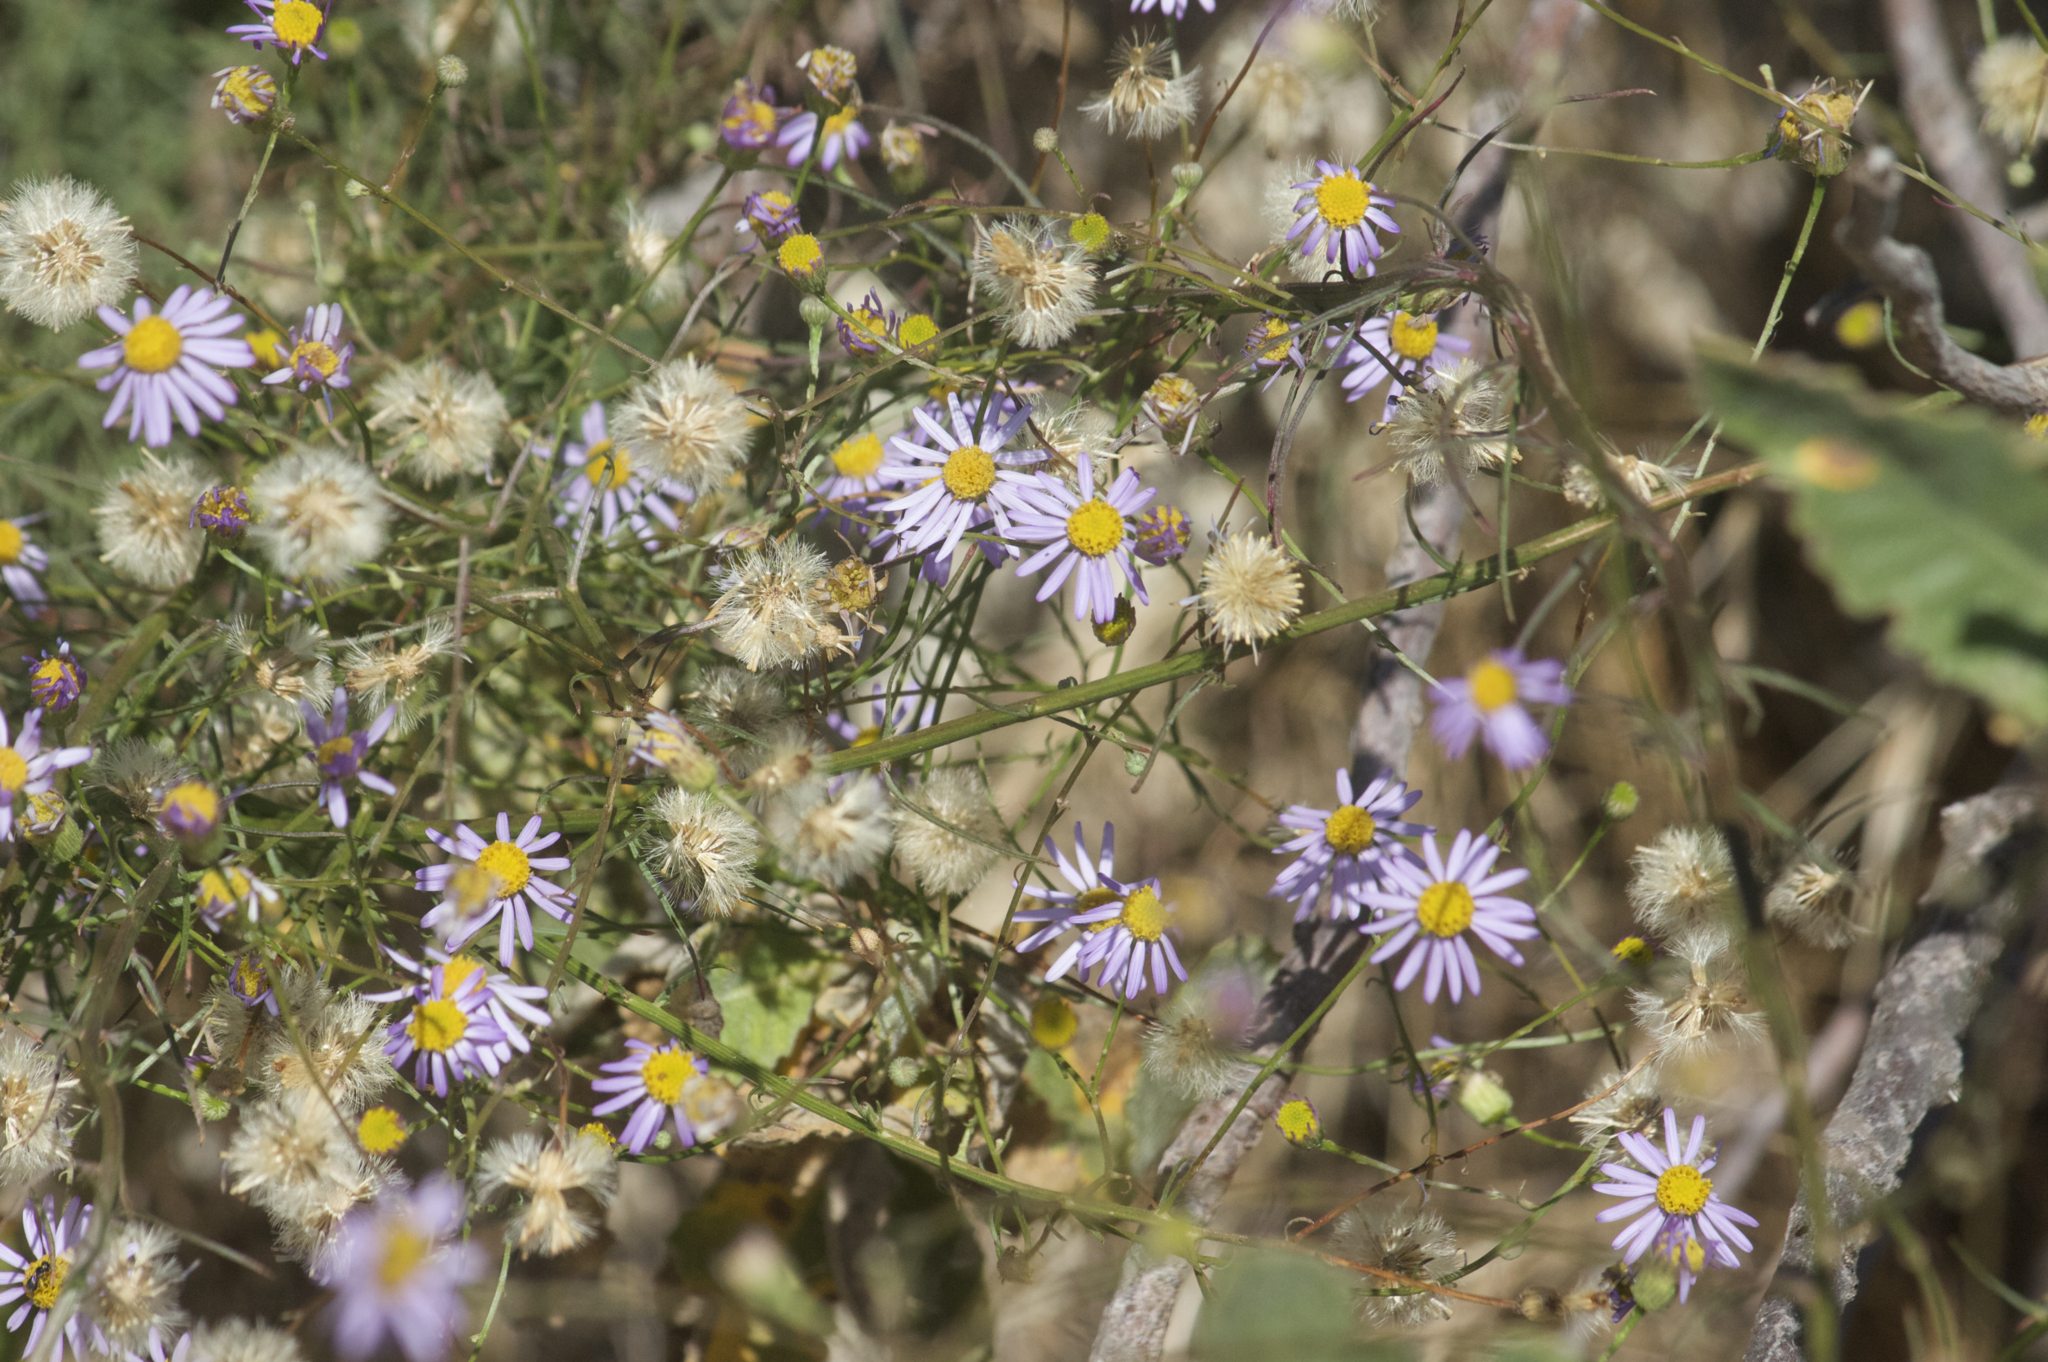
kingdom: Plantae
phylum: Tracheophyta
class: Magnoliopsida
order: Asterales
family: Asteraceae
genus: Erigeron
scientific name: Erigeron foliosus
